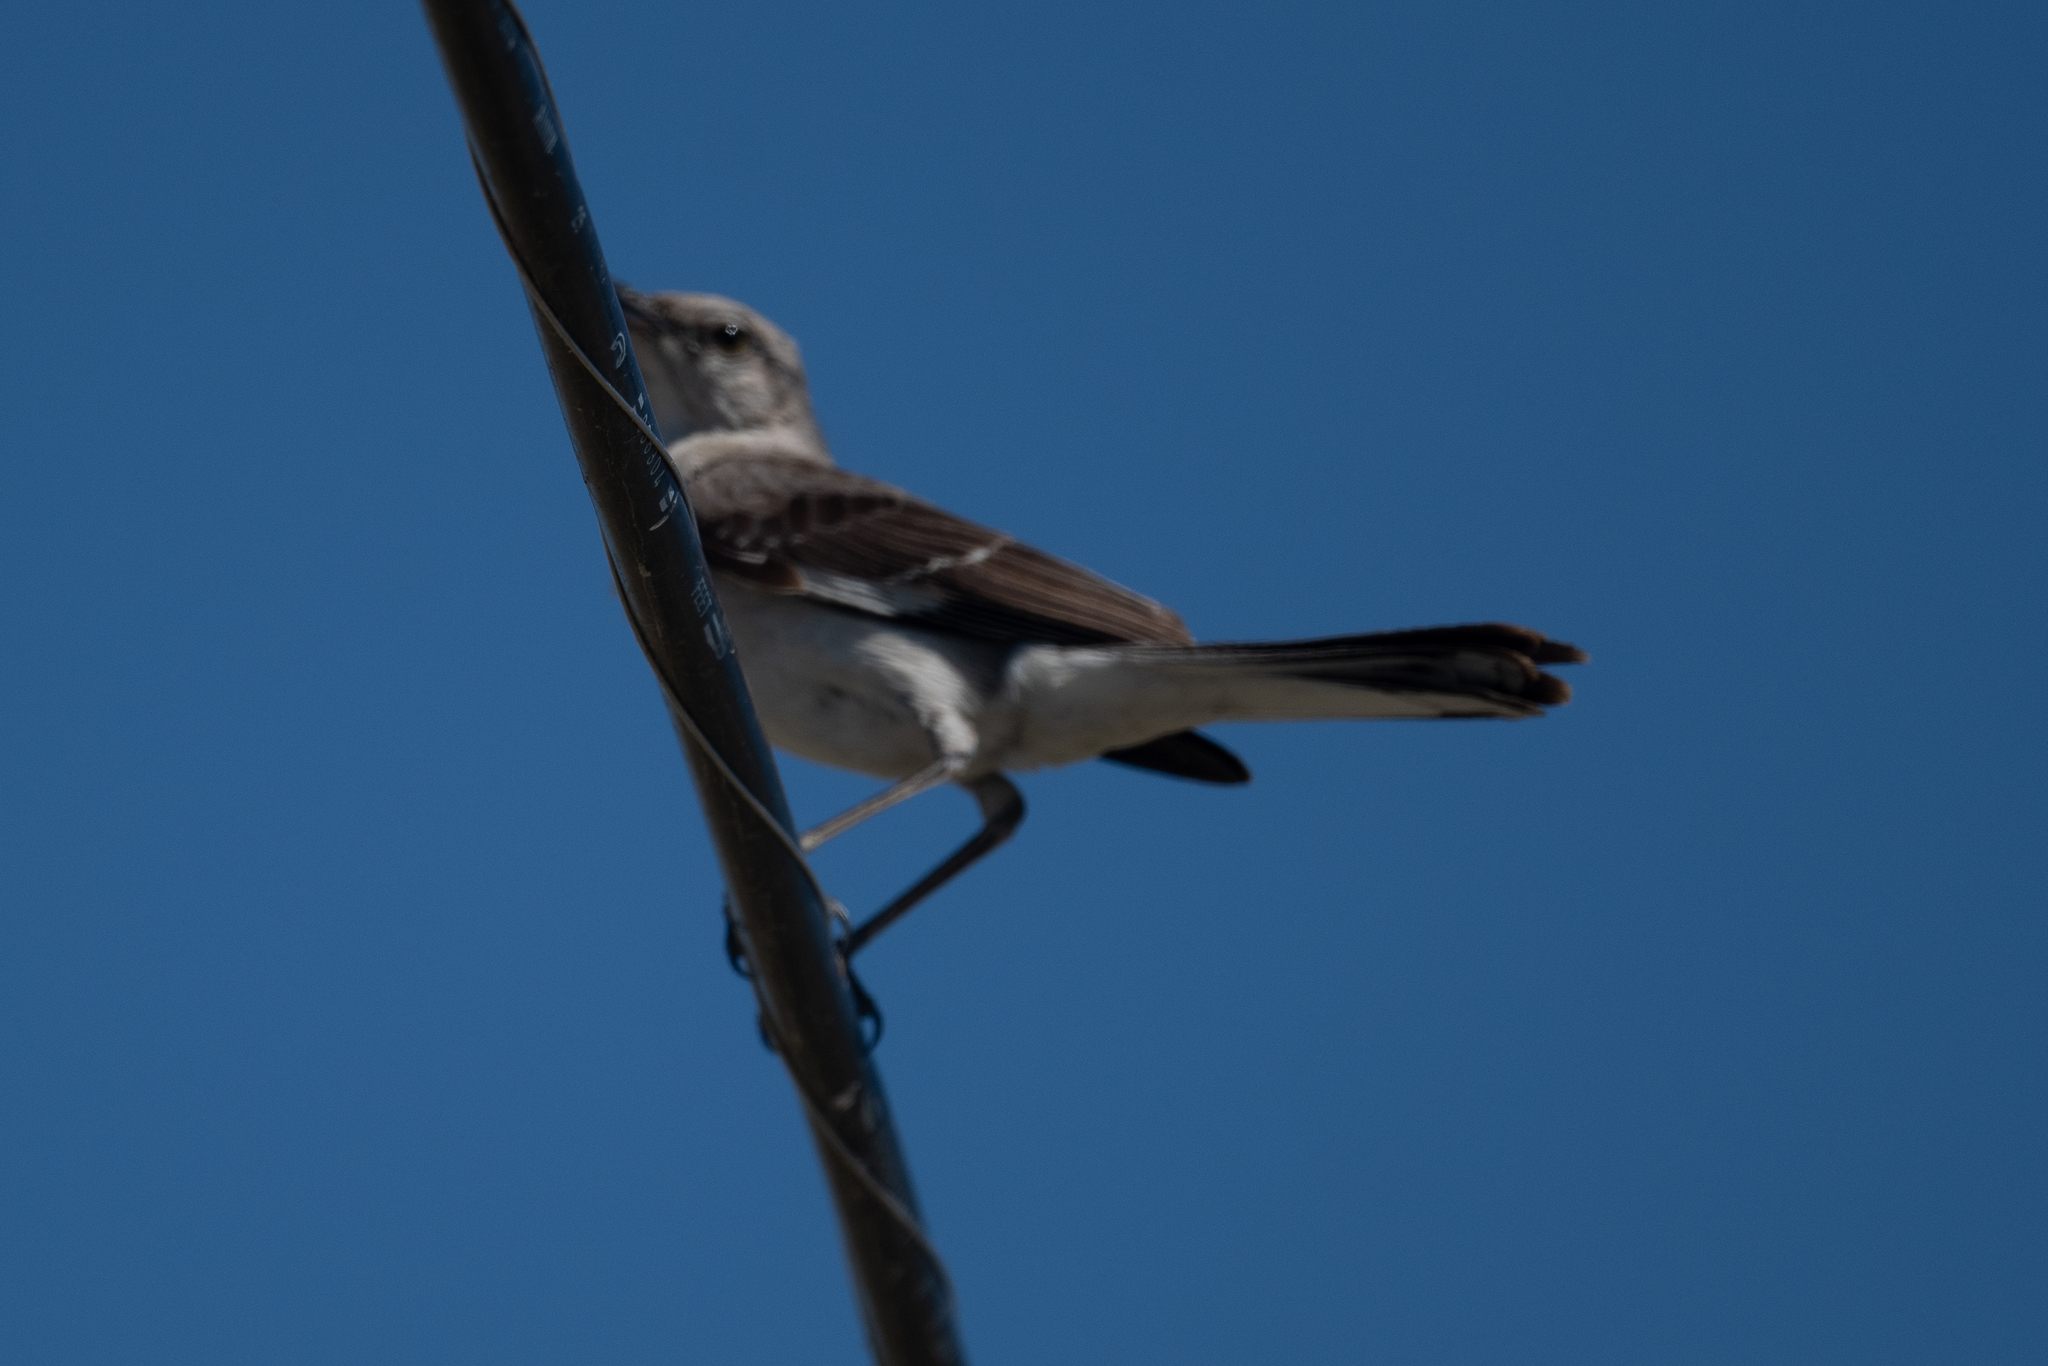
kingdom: Animalia
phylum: Chordata
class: Aves
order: Passeriformes
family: Mimidae
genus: Mimus
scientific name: Mimus polyglottos
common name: Northern mockingbird
